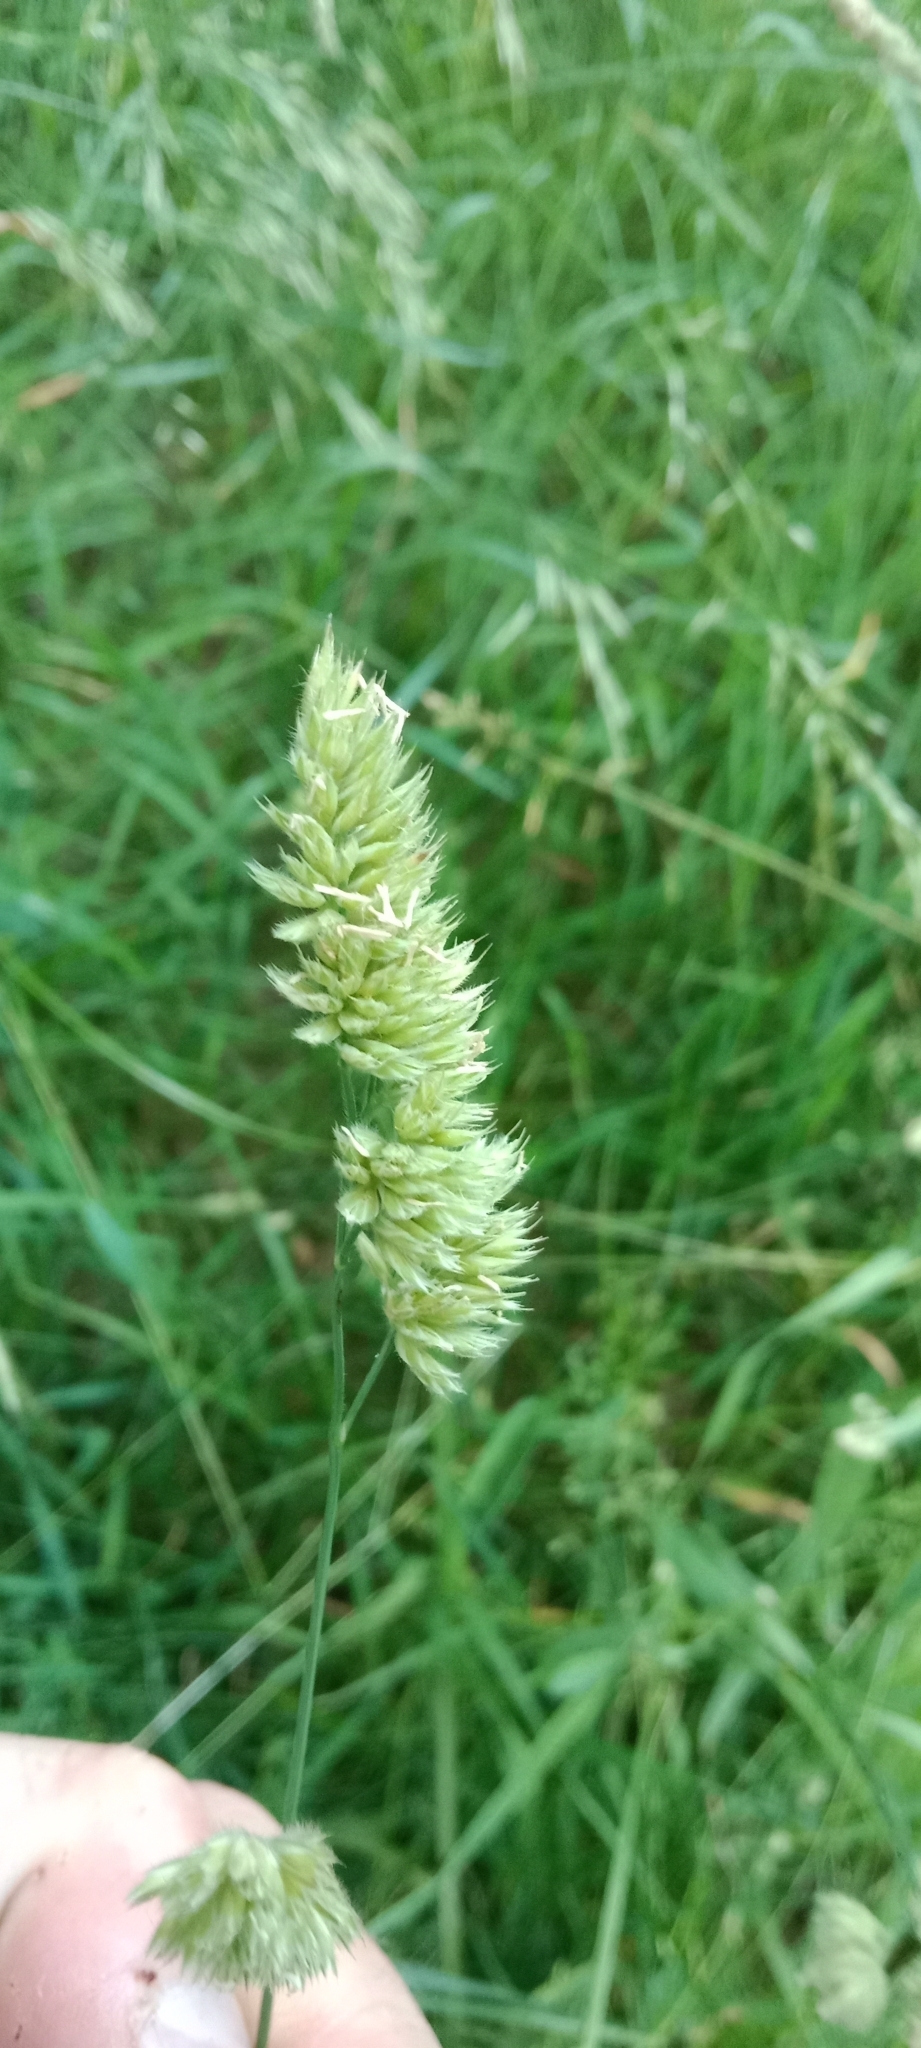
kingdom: Plantae
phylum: Tracheophyta
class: Liliopsida
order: Poales
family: Poaceae
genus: Dactylis
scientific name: Dactylis glomerata
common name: Orchardgrass
